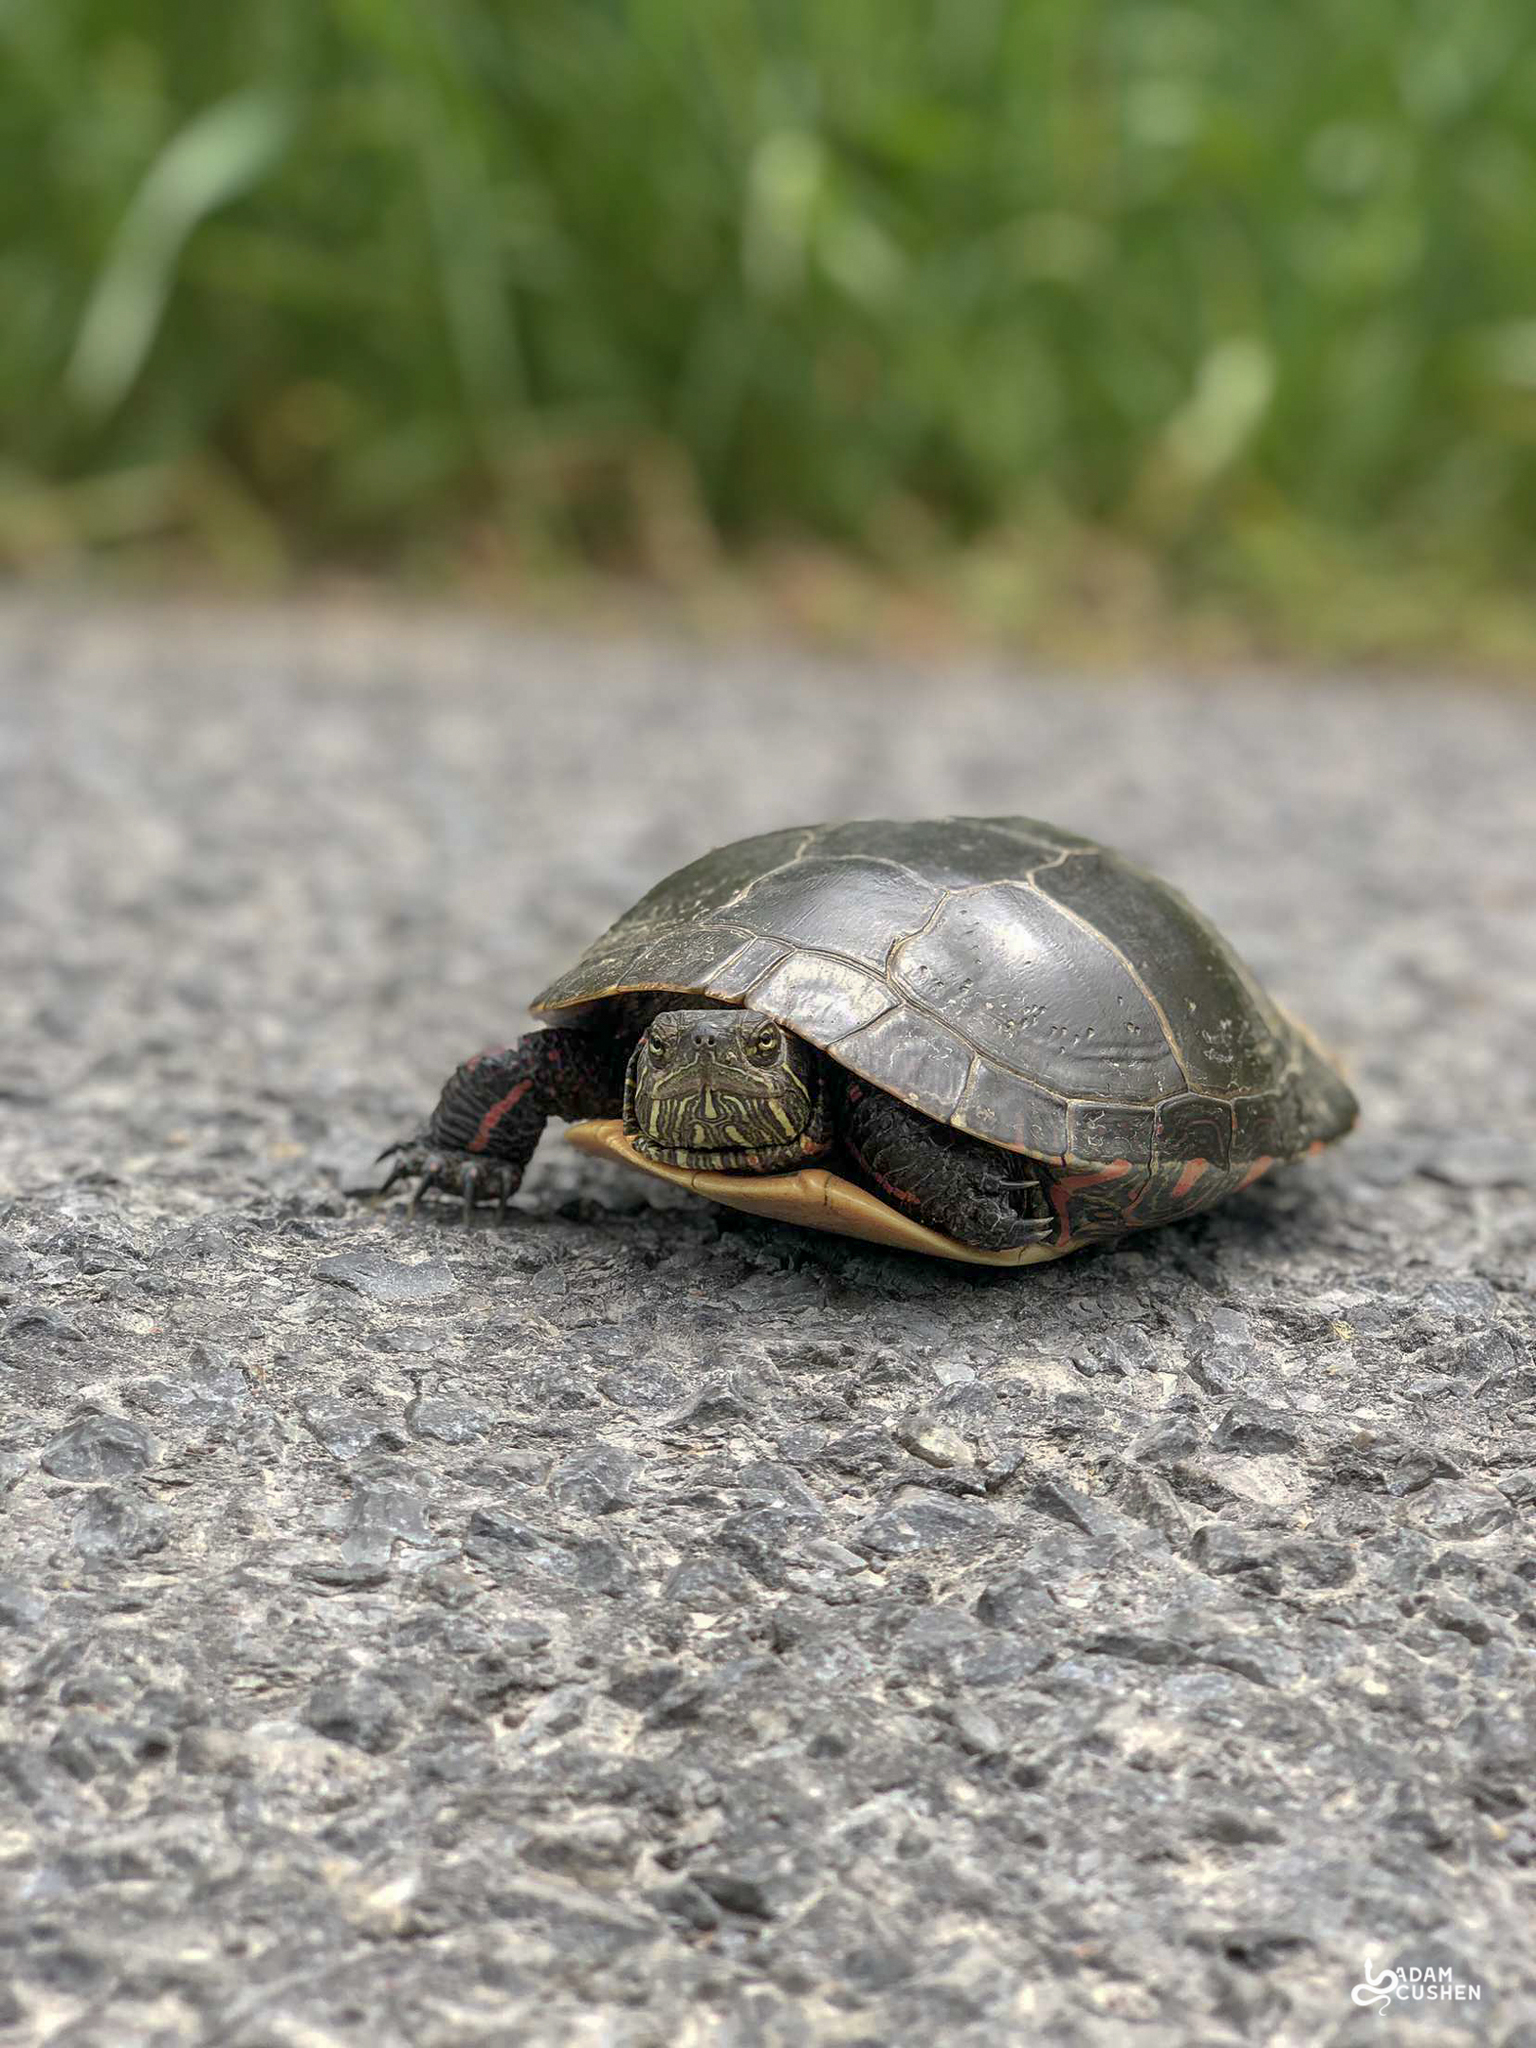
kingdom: Animalia
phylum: Chordata
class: Testudines
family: Emydidae
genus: Chrysemys
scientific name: Chrysemys picta
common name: Painted turtle
